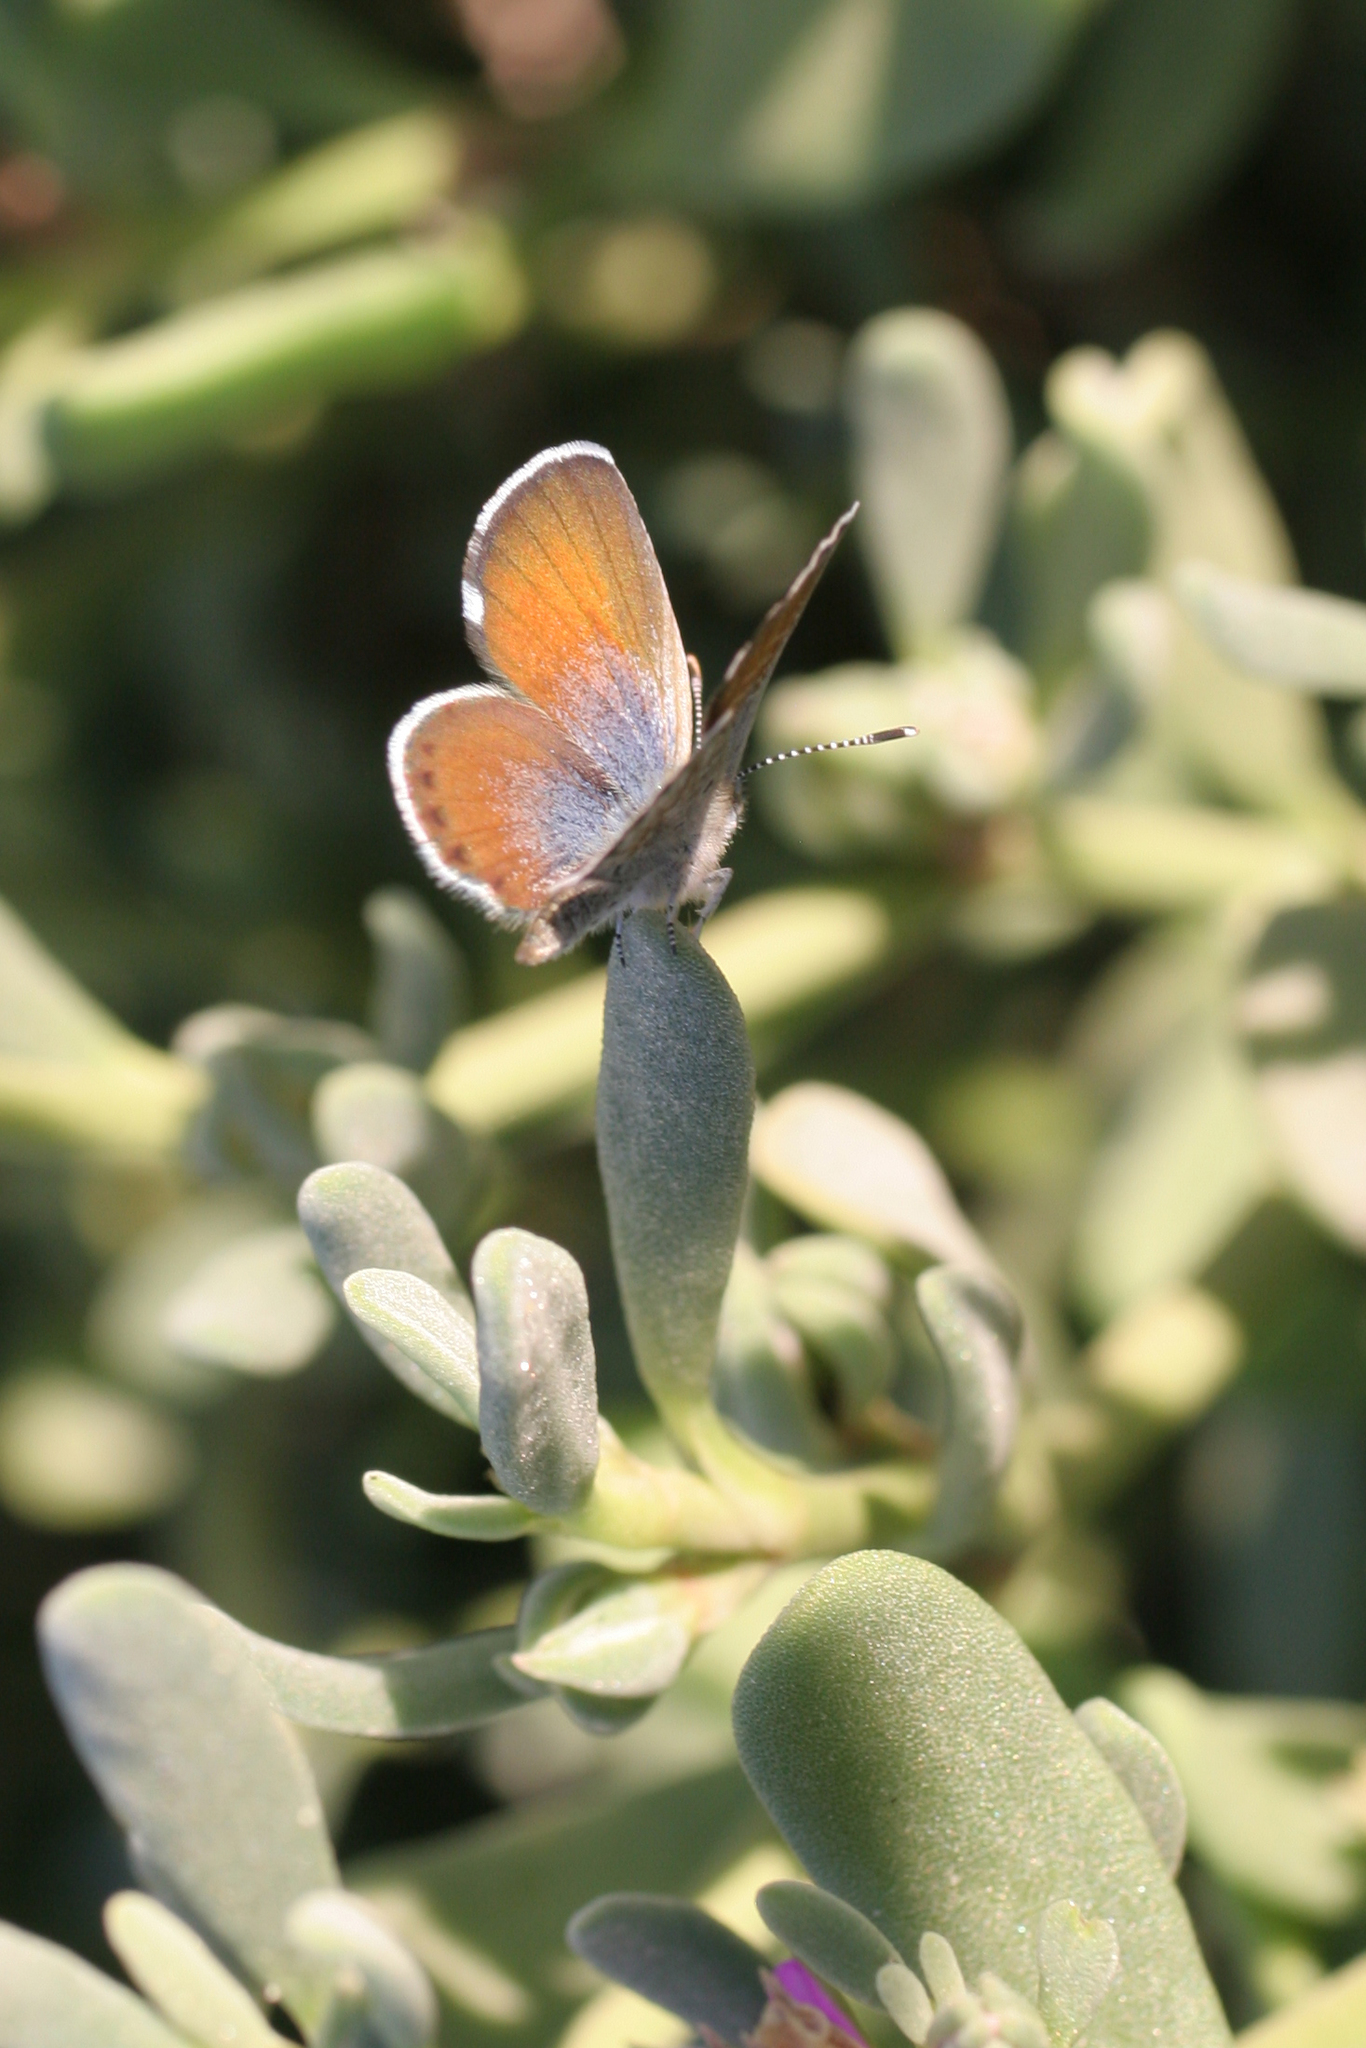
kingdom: Animalia
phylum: Arthropoda
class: Insecta
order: Lepidoptera
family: Lycaenidae
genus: Brephidium
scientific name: Brephidium exilis
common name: Pygmy blue
